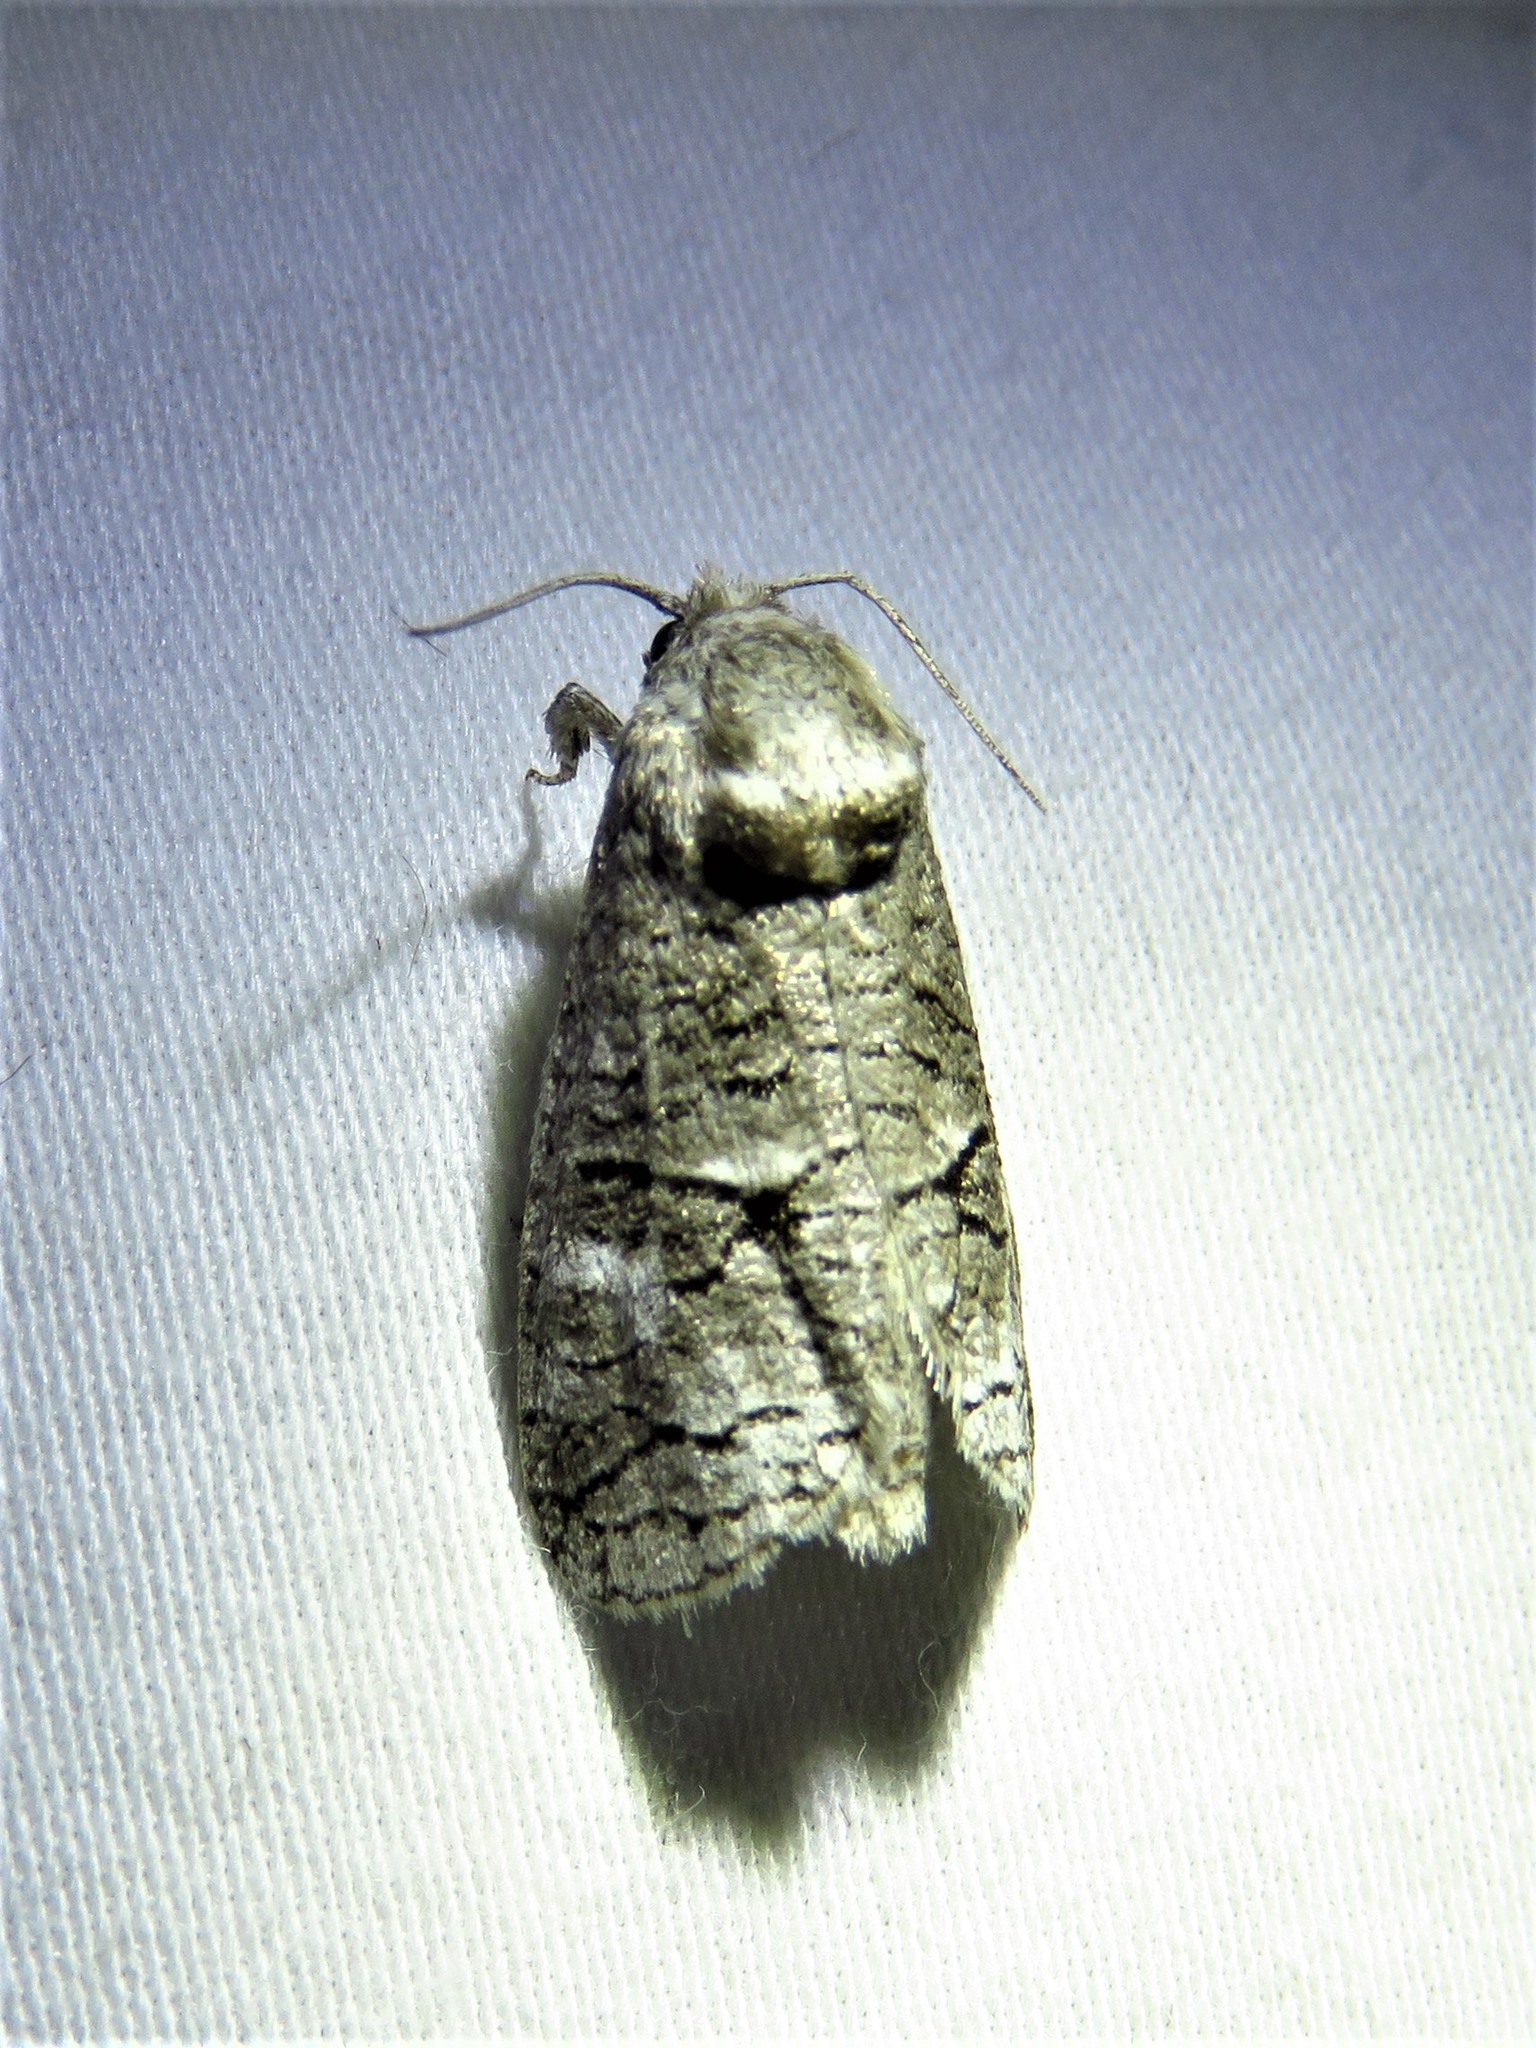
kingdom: Animalia
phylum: Arthropoda
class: Insecta
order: Lepidoptera
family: Cossidae
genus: Fania
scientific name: Fania nanus
